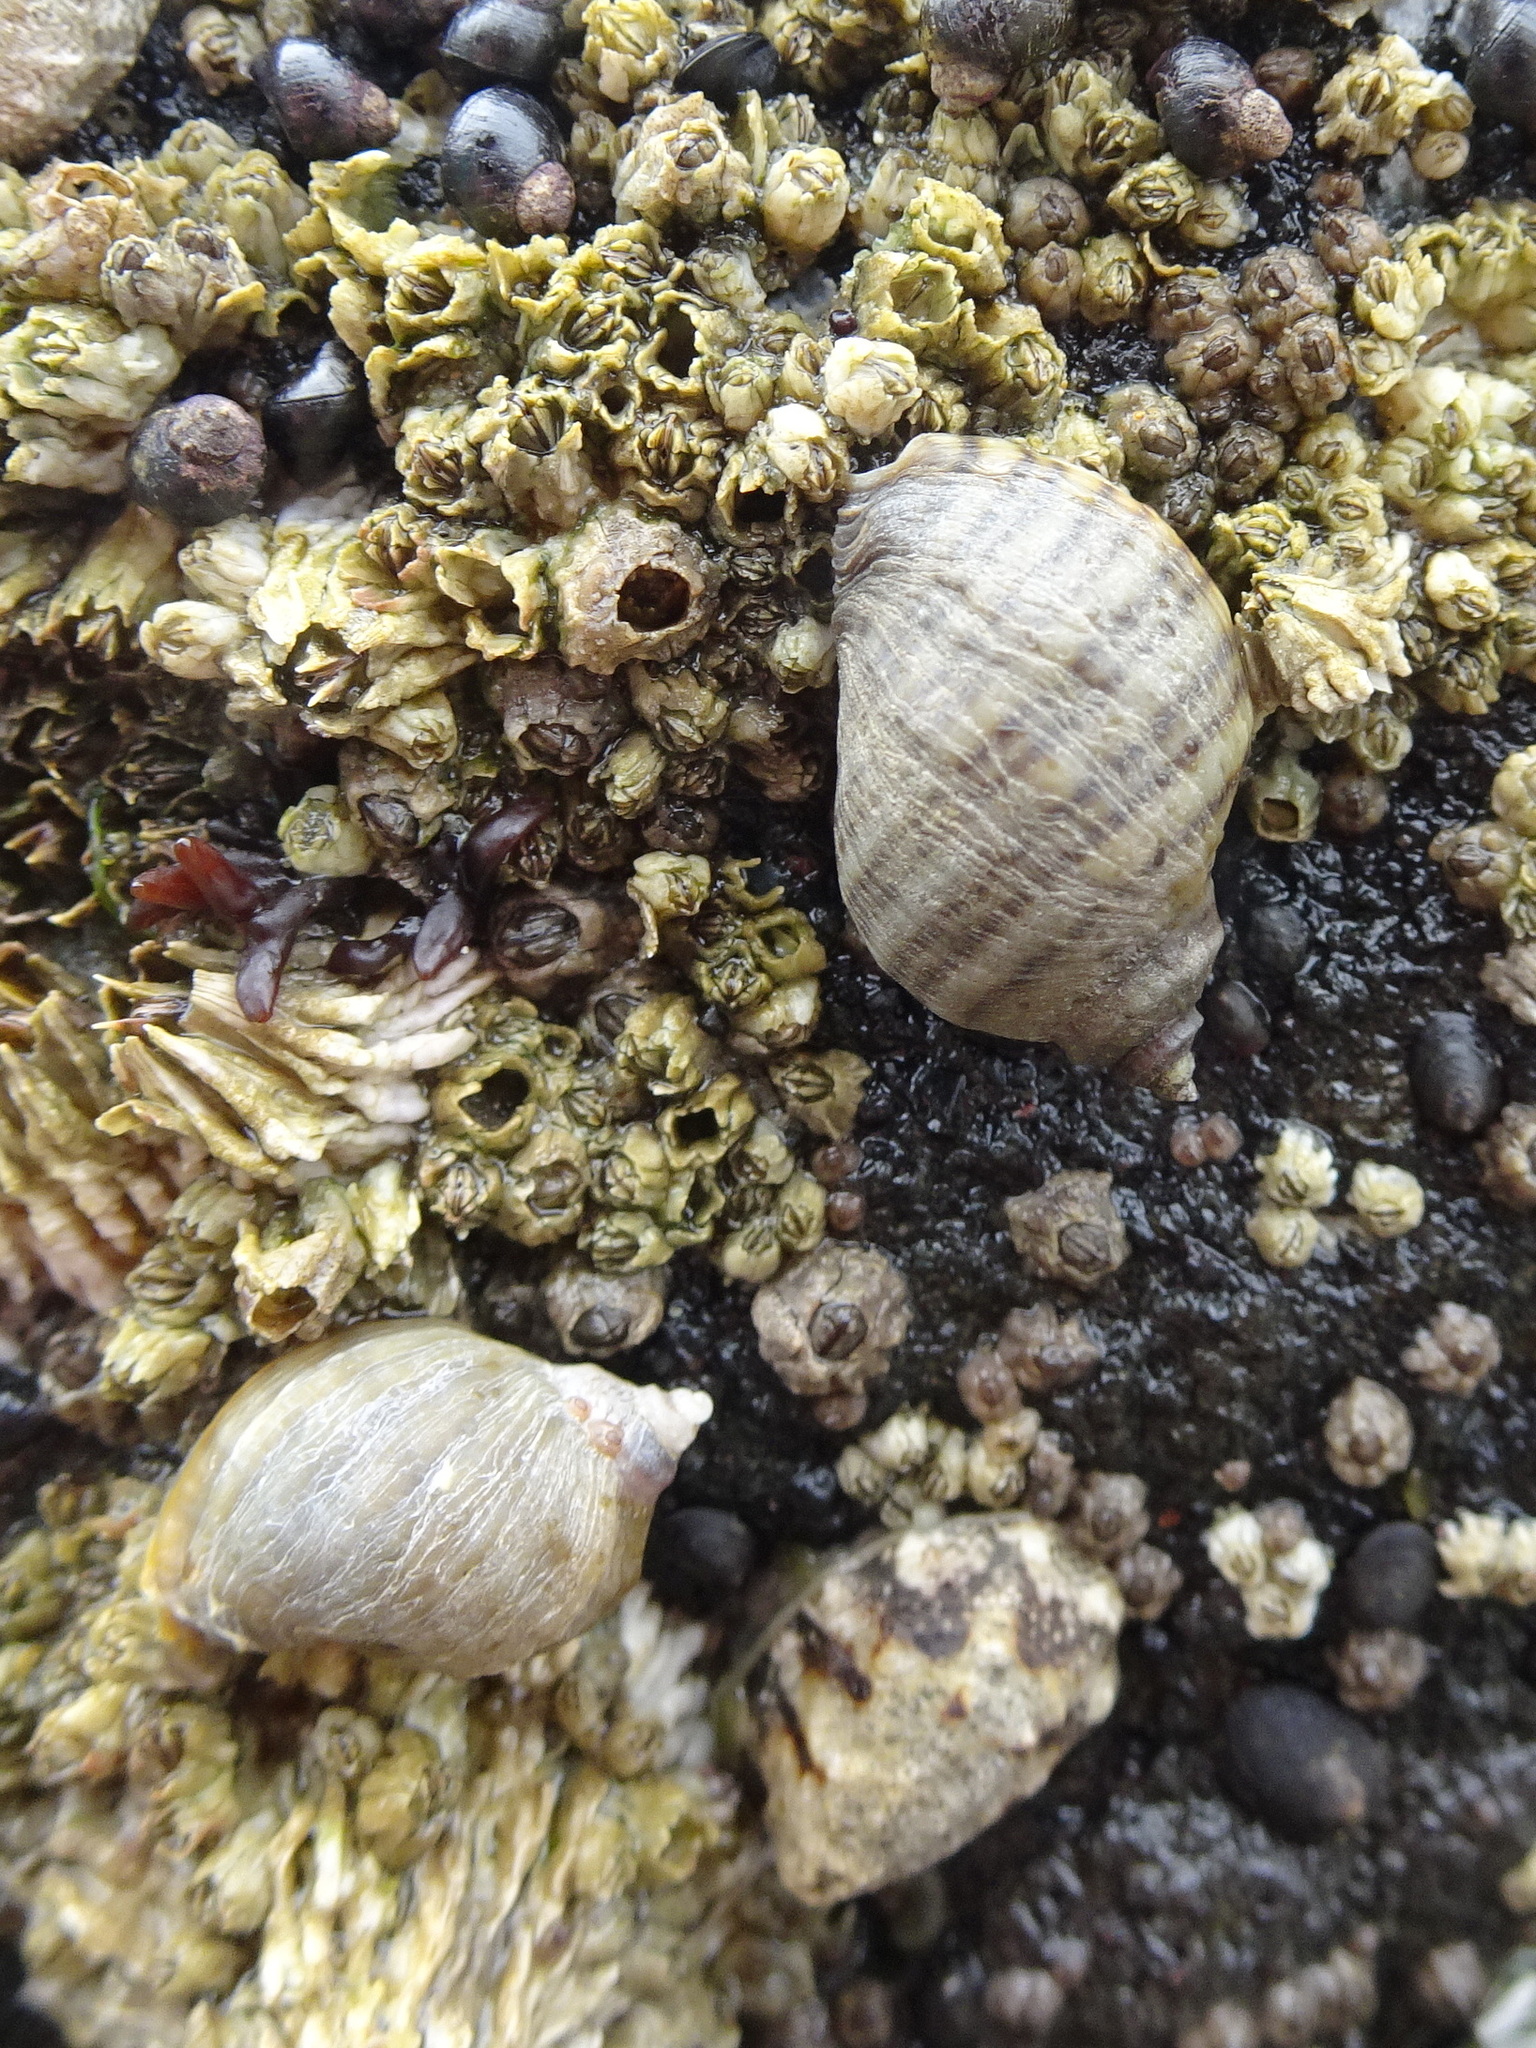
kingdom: Animalia
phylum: Mollusca
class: Gastropoda
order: Neogastropoda
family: Muricidae
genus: Nucella
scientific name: Nucella ostrina
